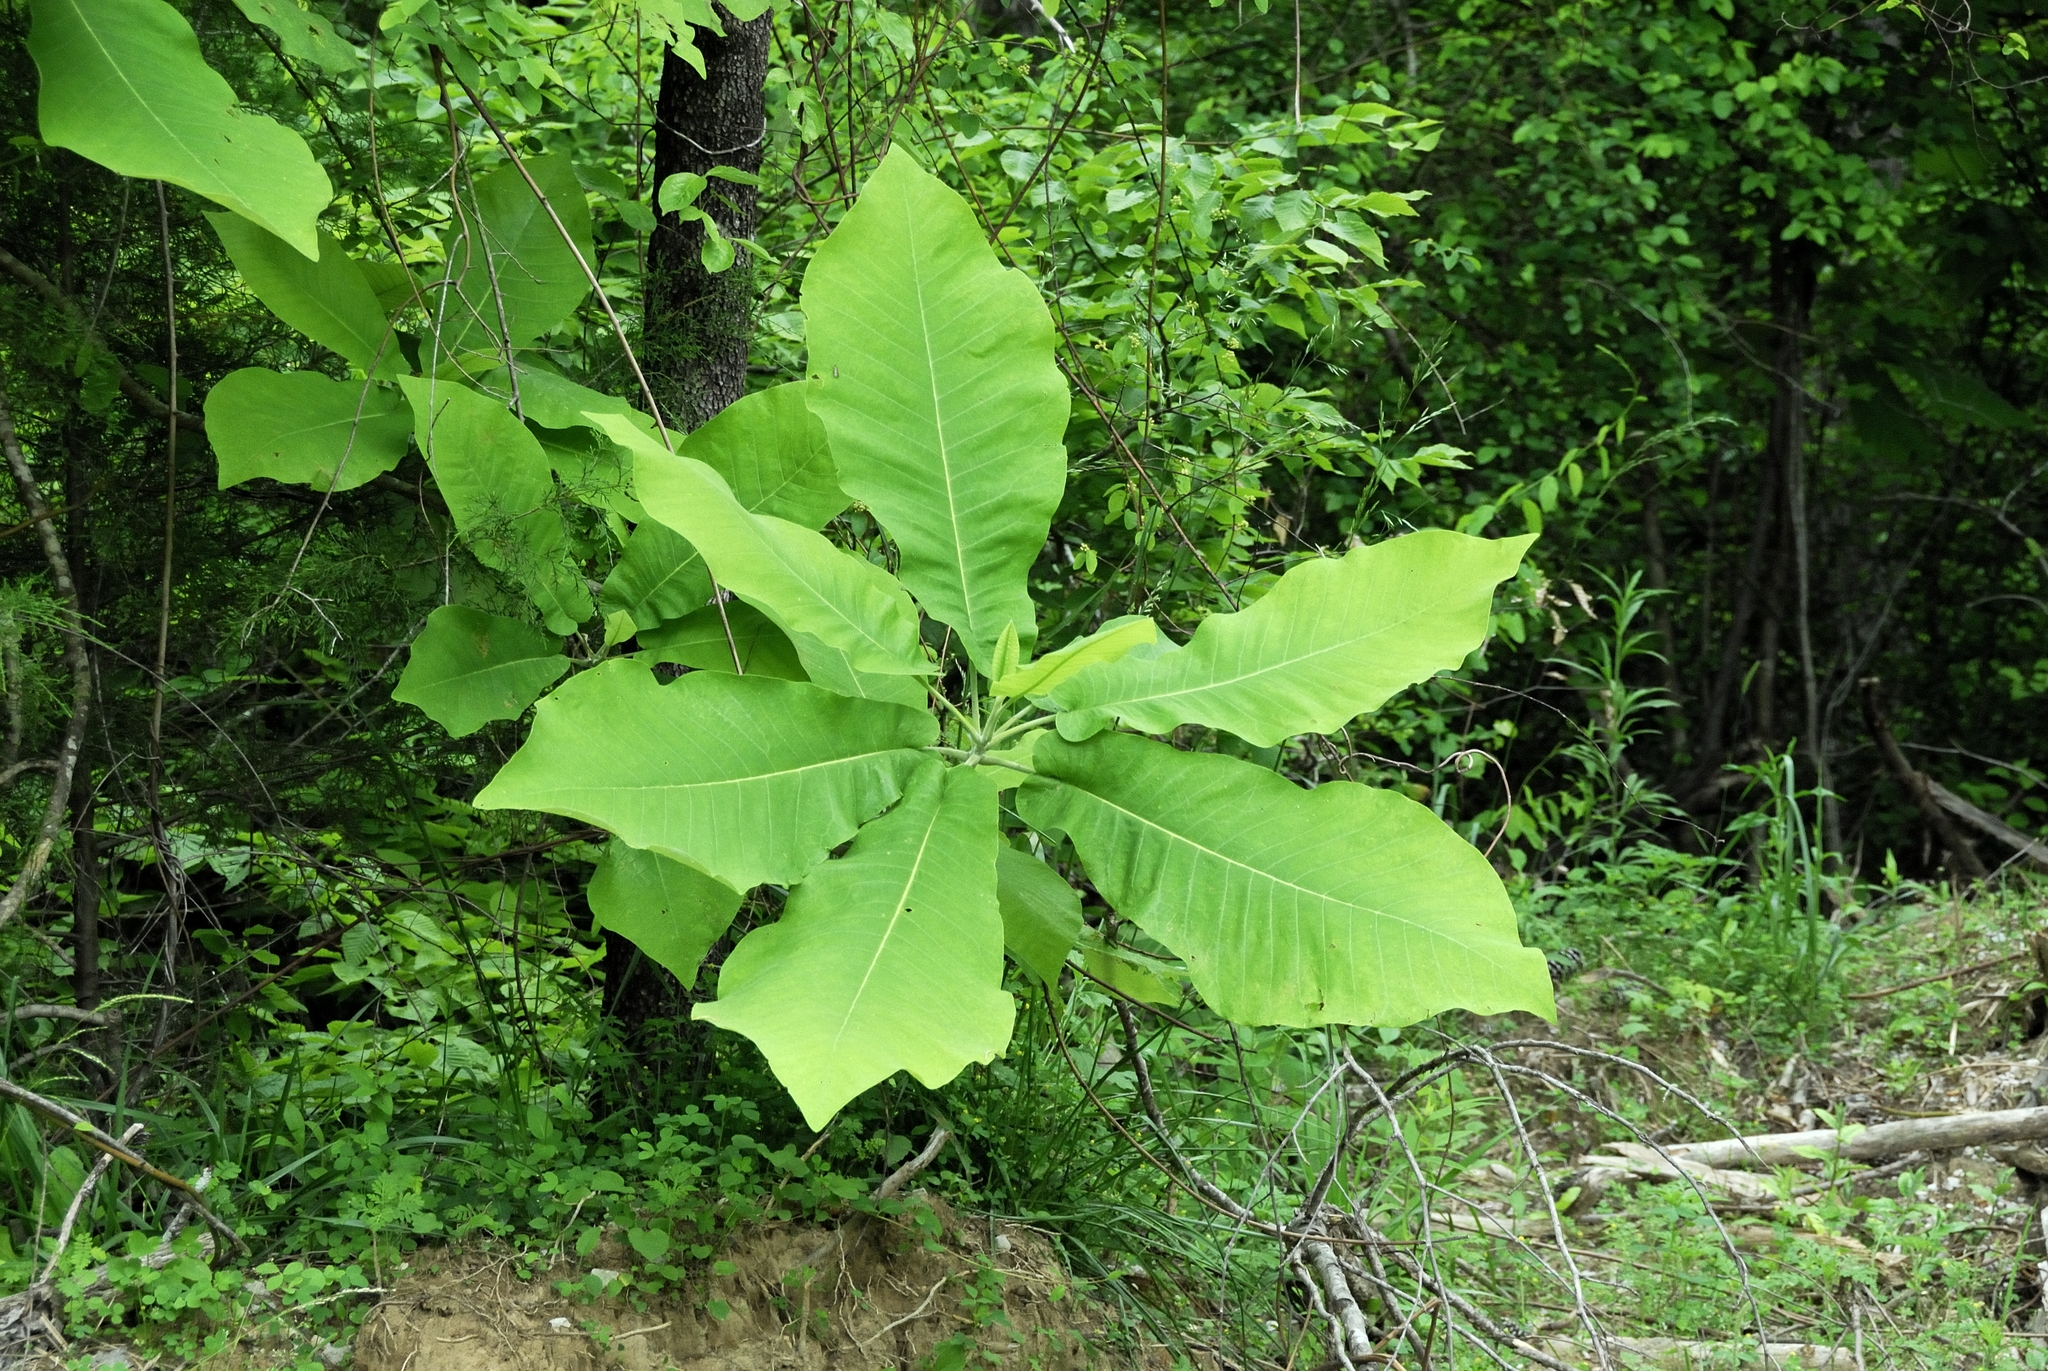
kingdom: Plantae
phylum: Tracheophyta
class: Magnoliopsida
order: Magnoliales
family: Magnoliaceae
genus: Magnolia
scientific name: Magnolia macrophylla
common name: Big-leaf magnolia
